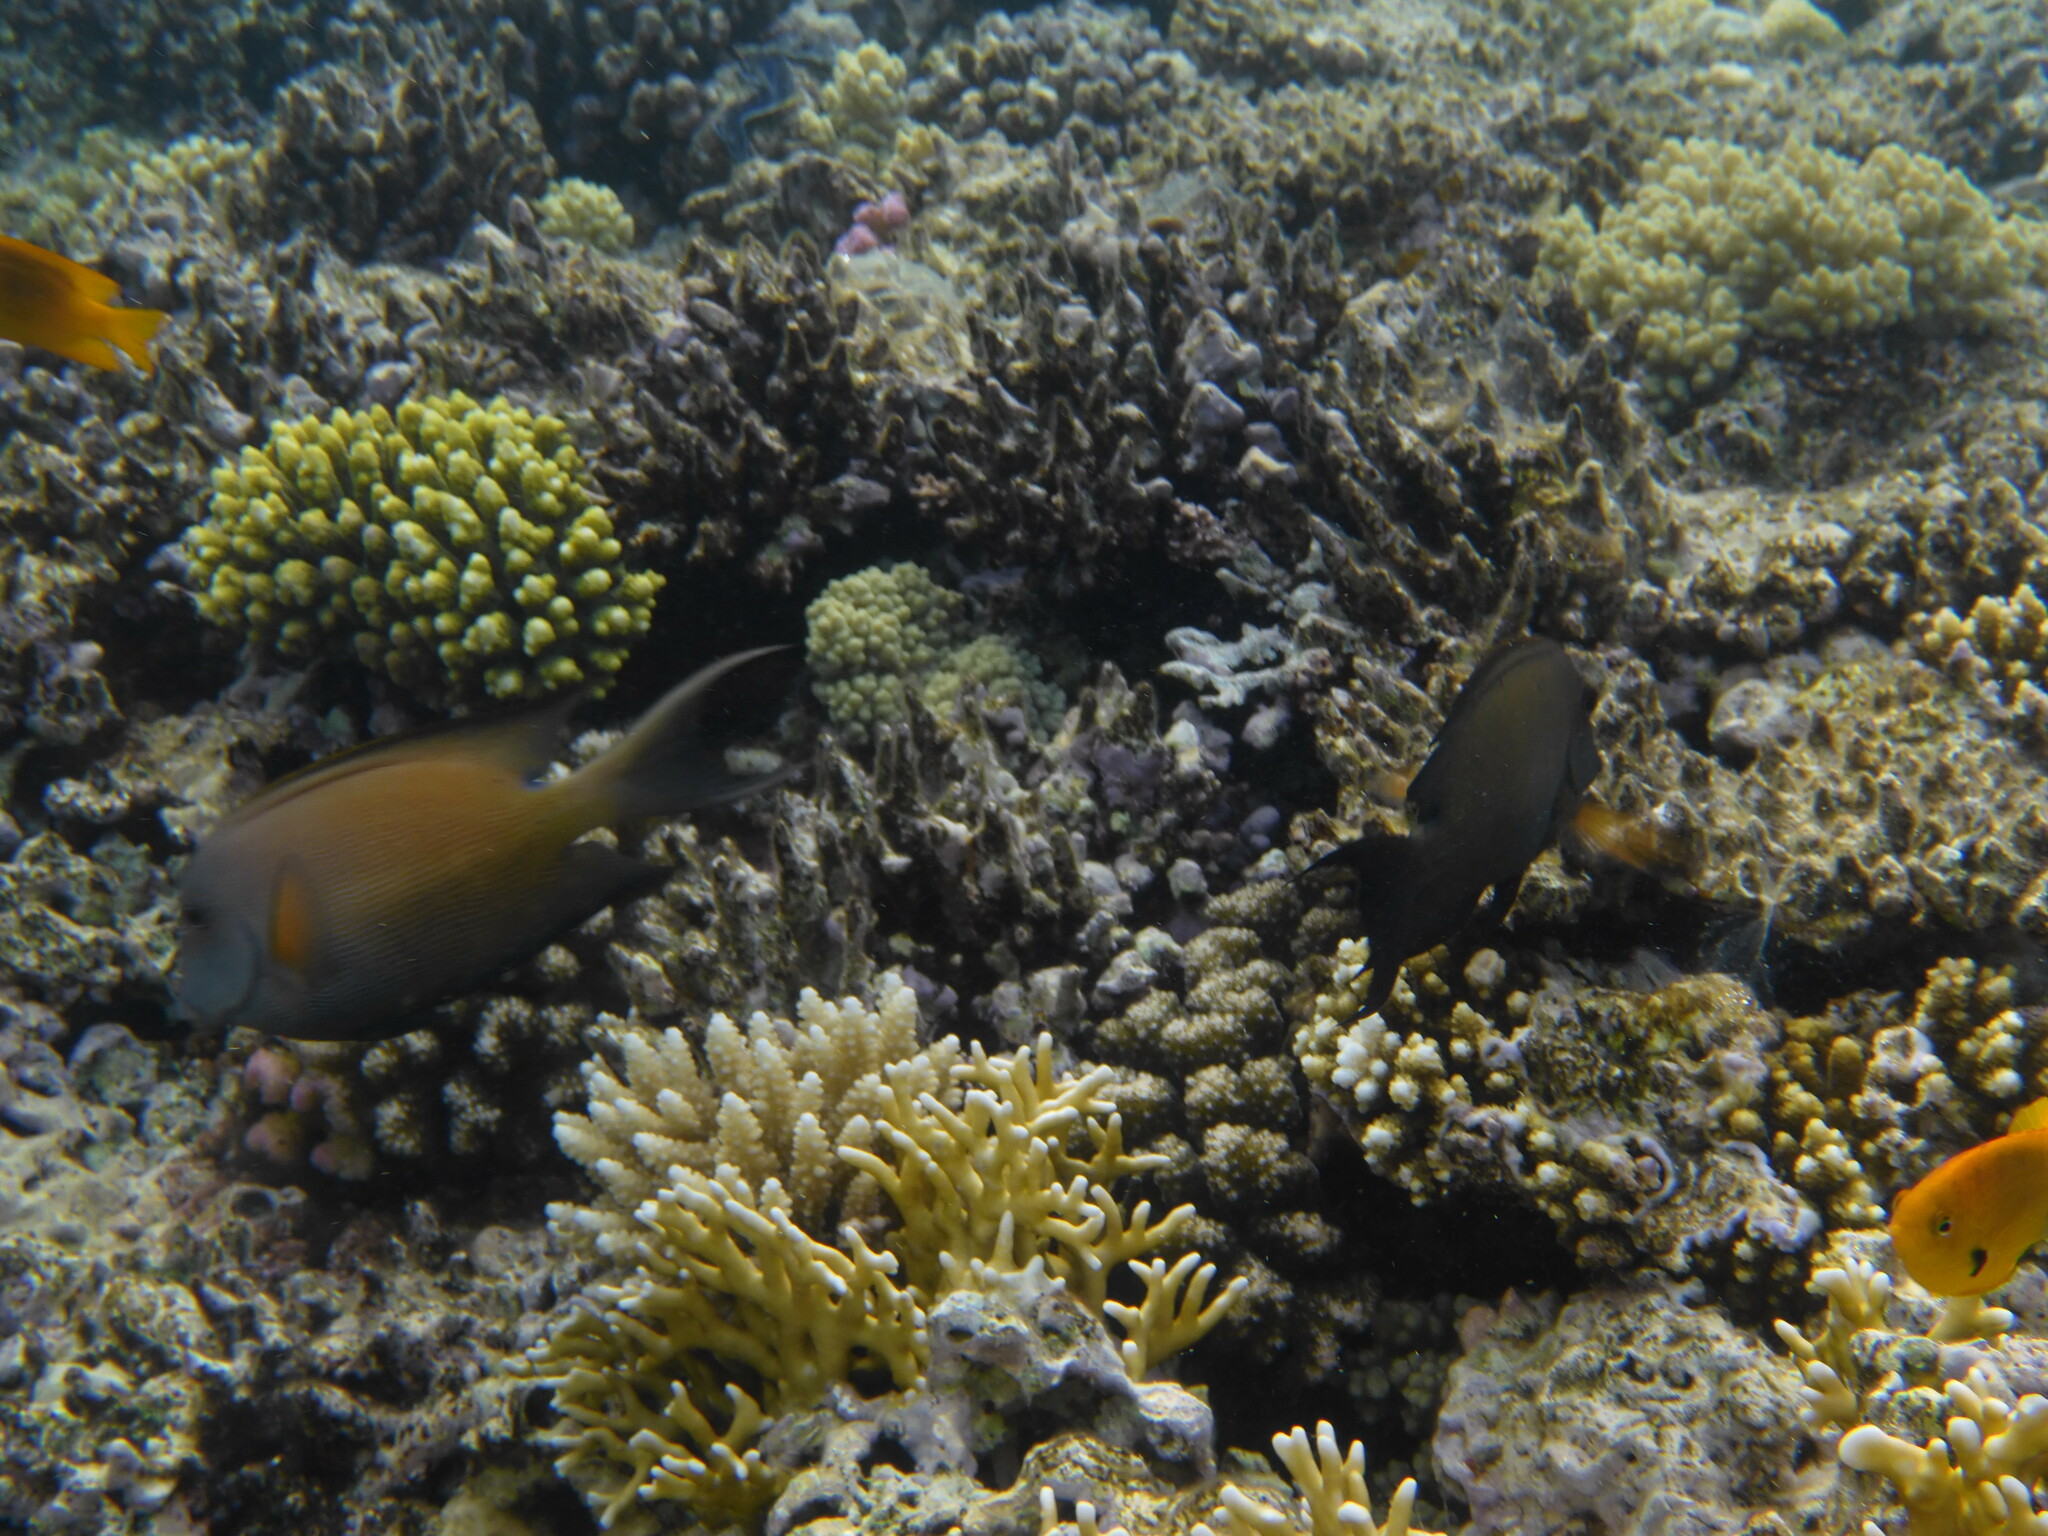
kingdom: Animalia
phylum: Chordata
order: Perciformes
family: Acanthuridae
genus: Ctenochaetus
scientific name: Ctenochaetus striatus
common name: Bristle-toothed surgeonfish
